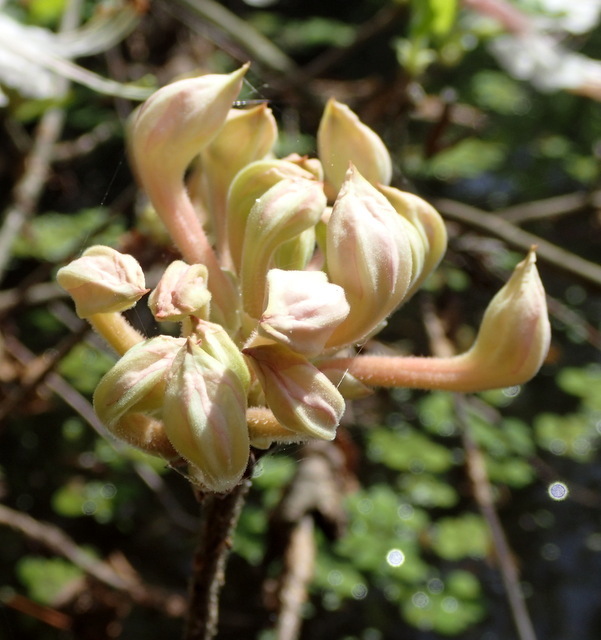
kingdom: Plantae
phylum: Tracheophyta
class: Magnoliopsida
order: Ericales
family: Ericaceae
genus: Rhododendron
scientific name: Rhododendron canescens
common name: Mountain azalea
